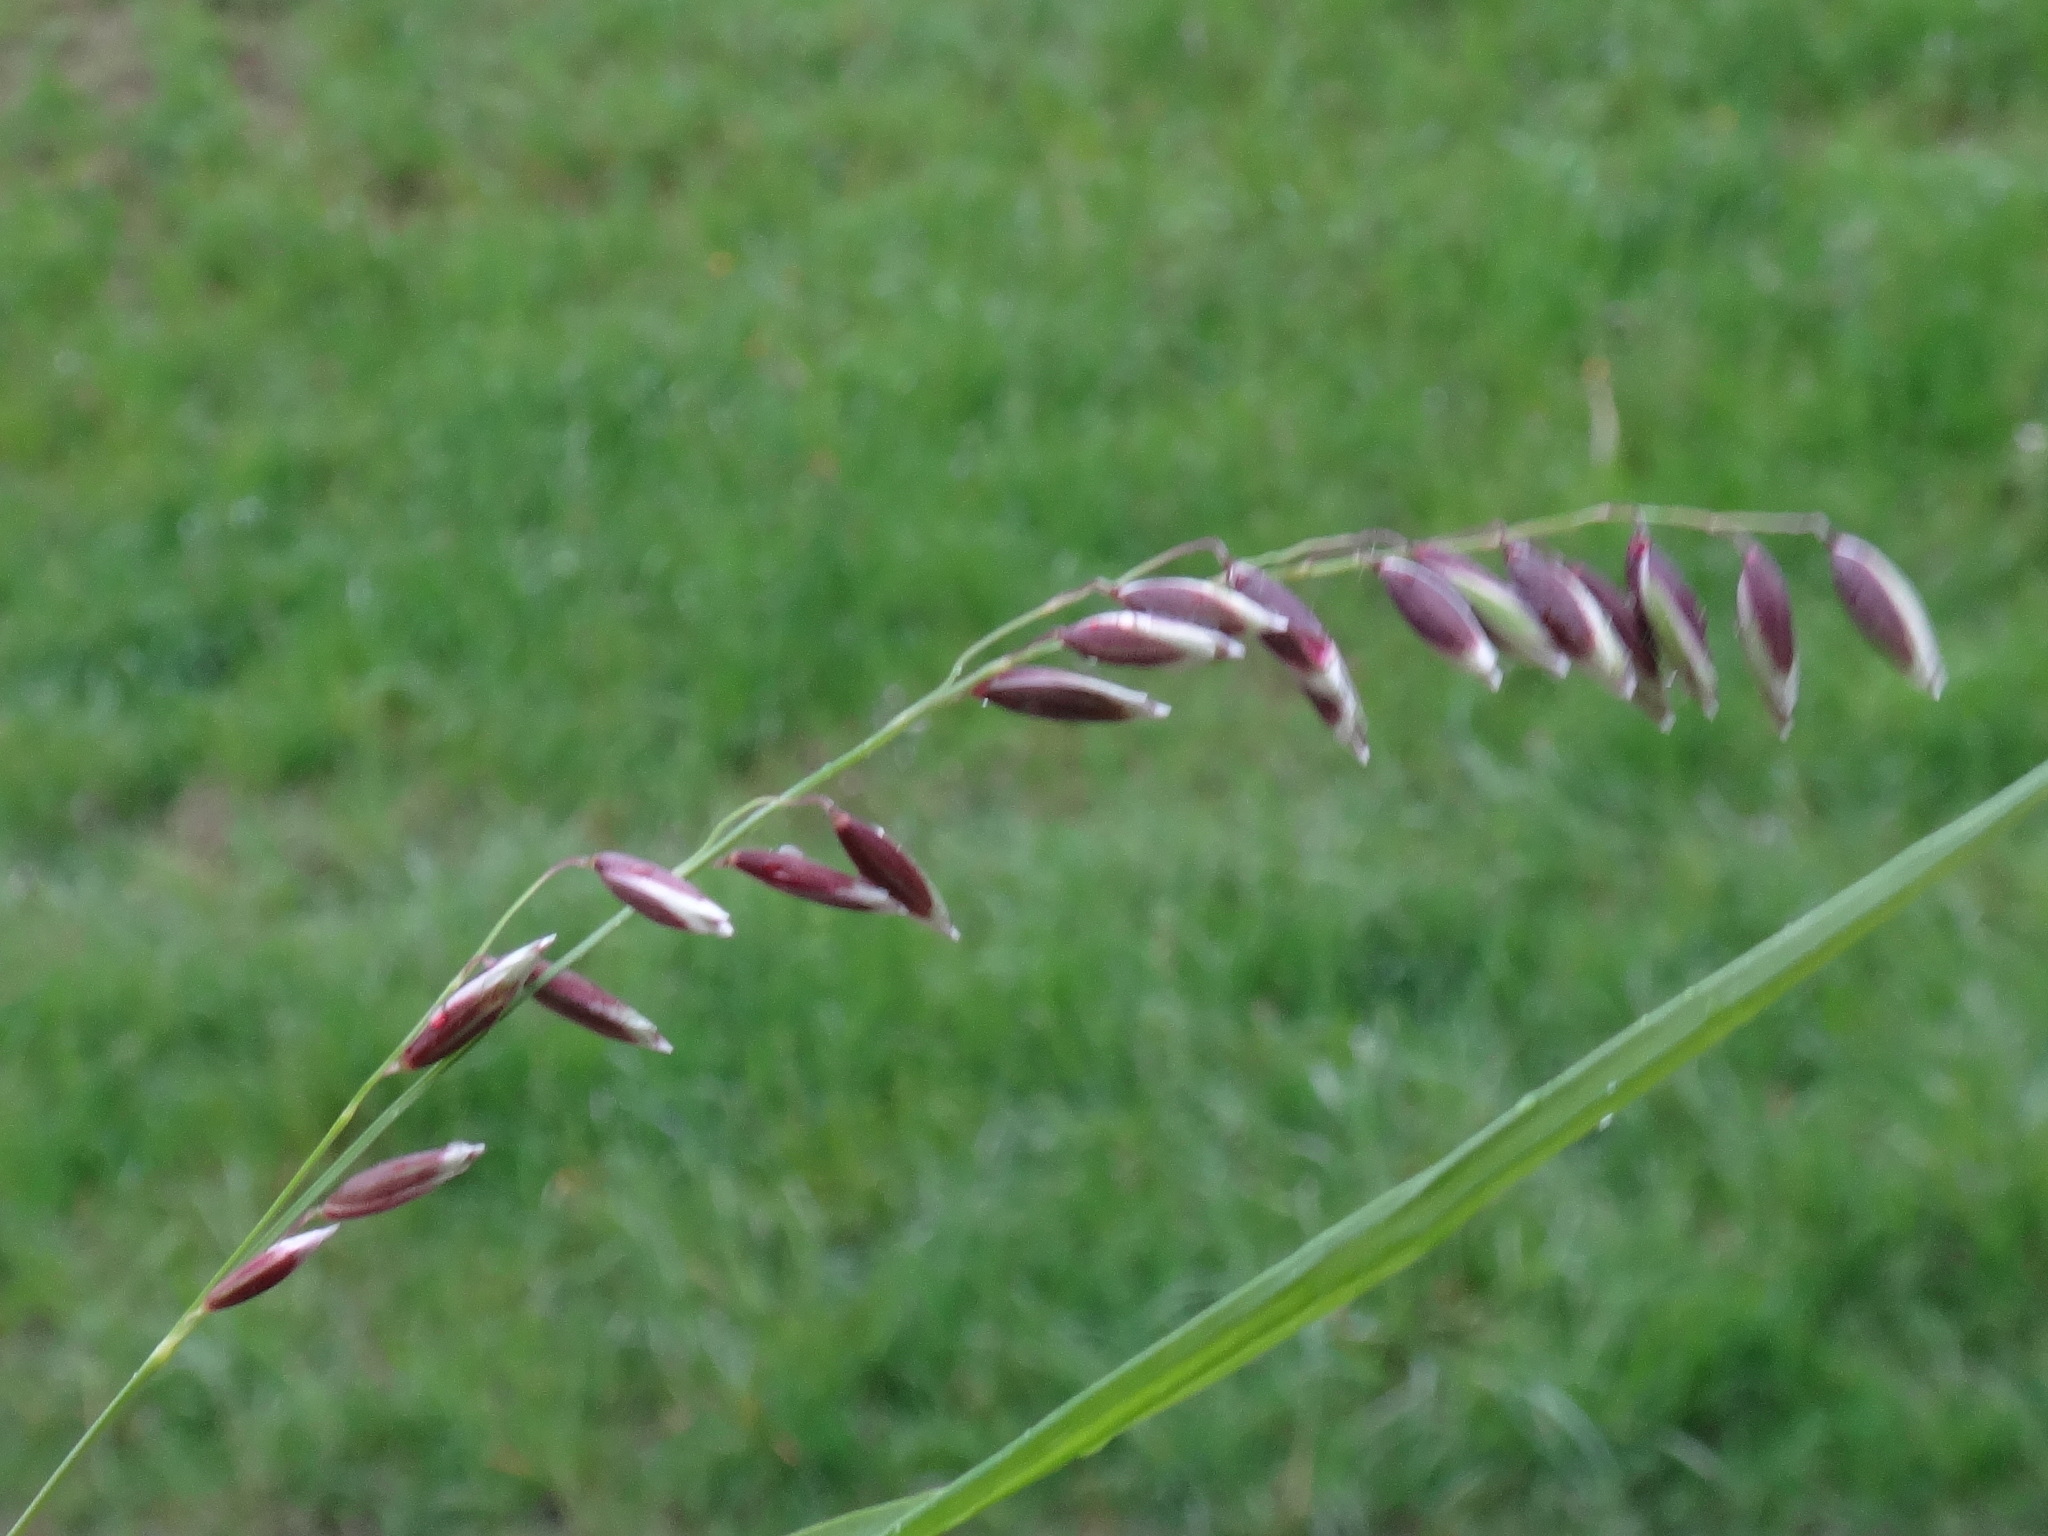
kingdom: Plantae
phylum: Tracheophyta
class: Liliopsida
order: Poales
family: Poaceae
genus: Melica
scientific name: Melica nutans
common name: Mountain melick
